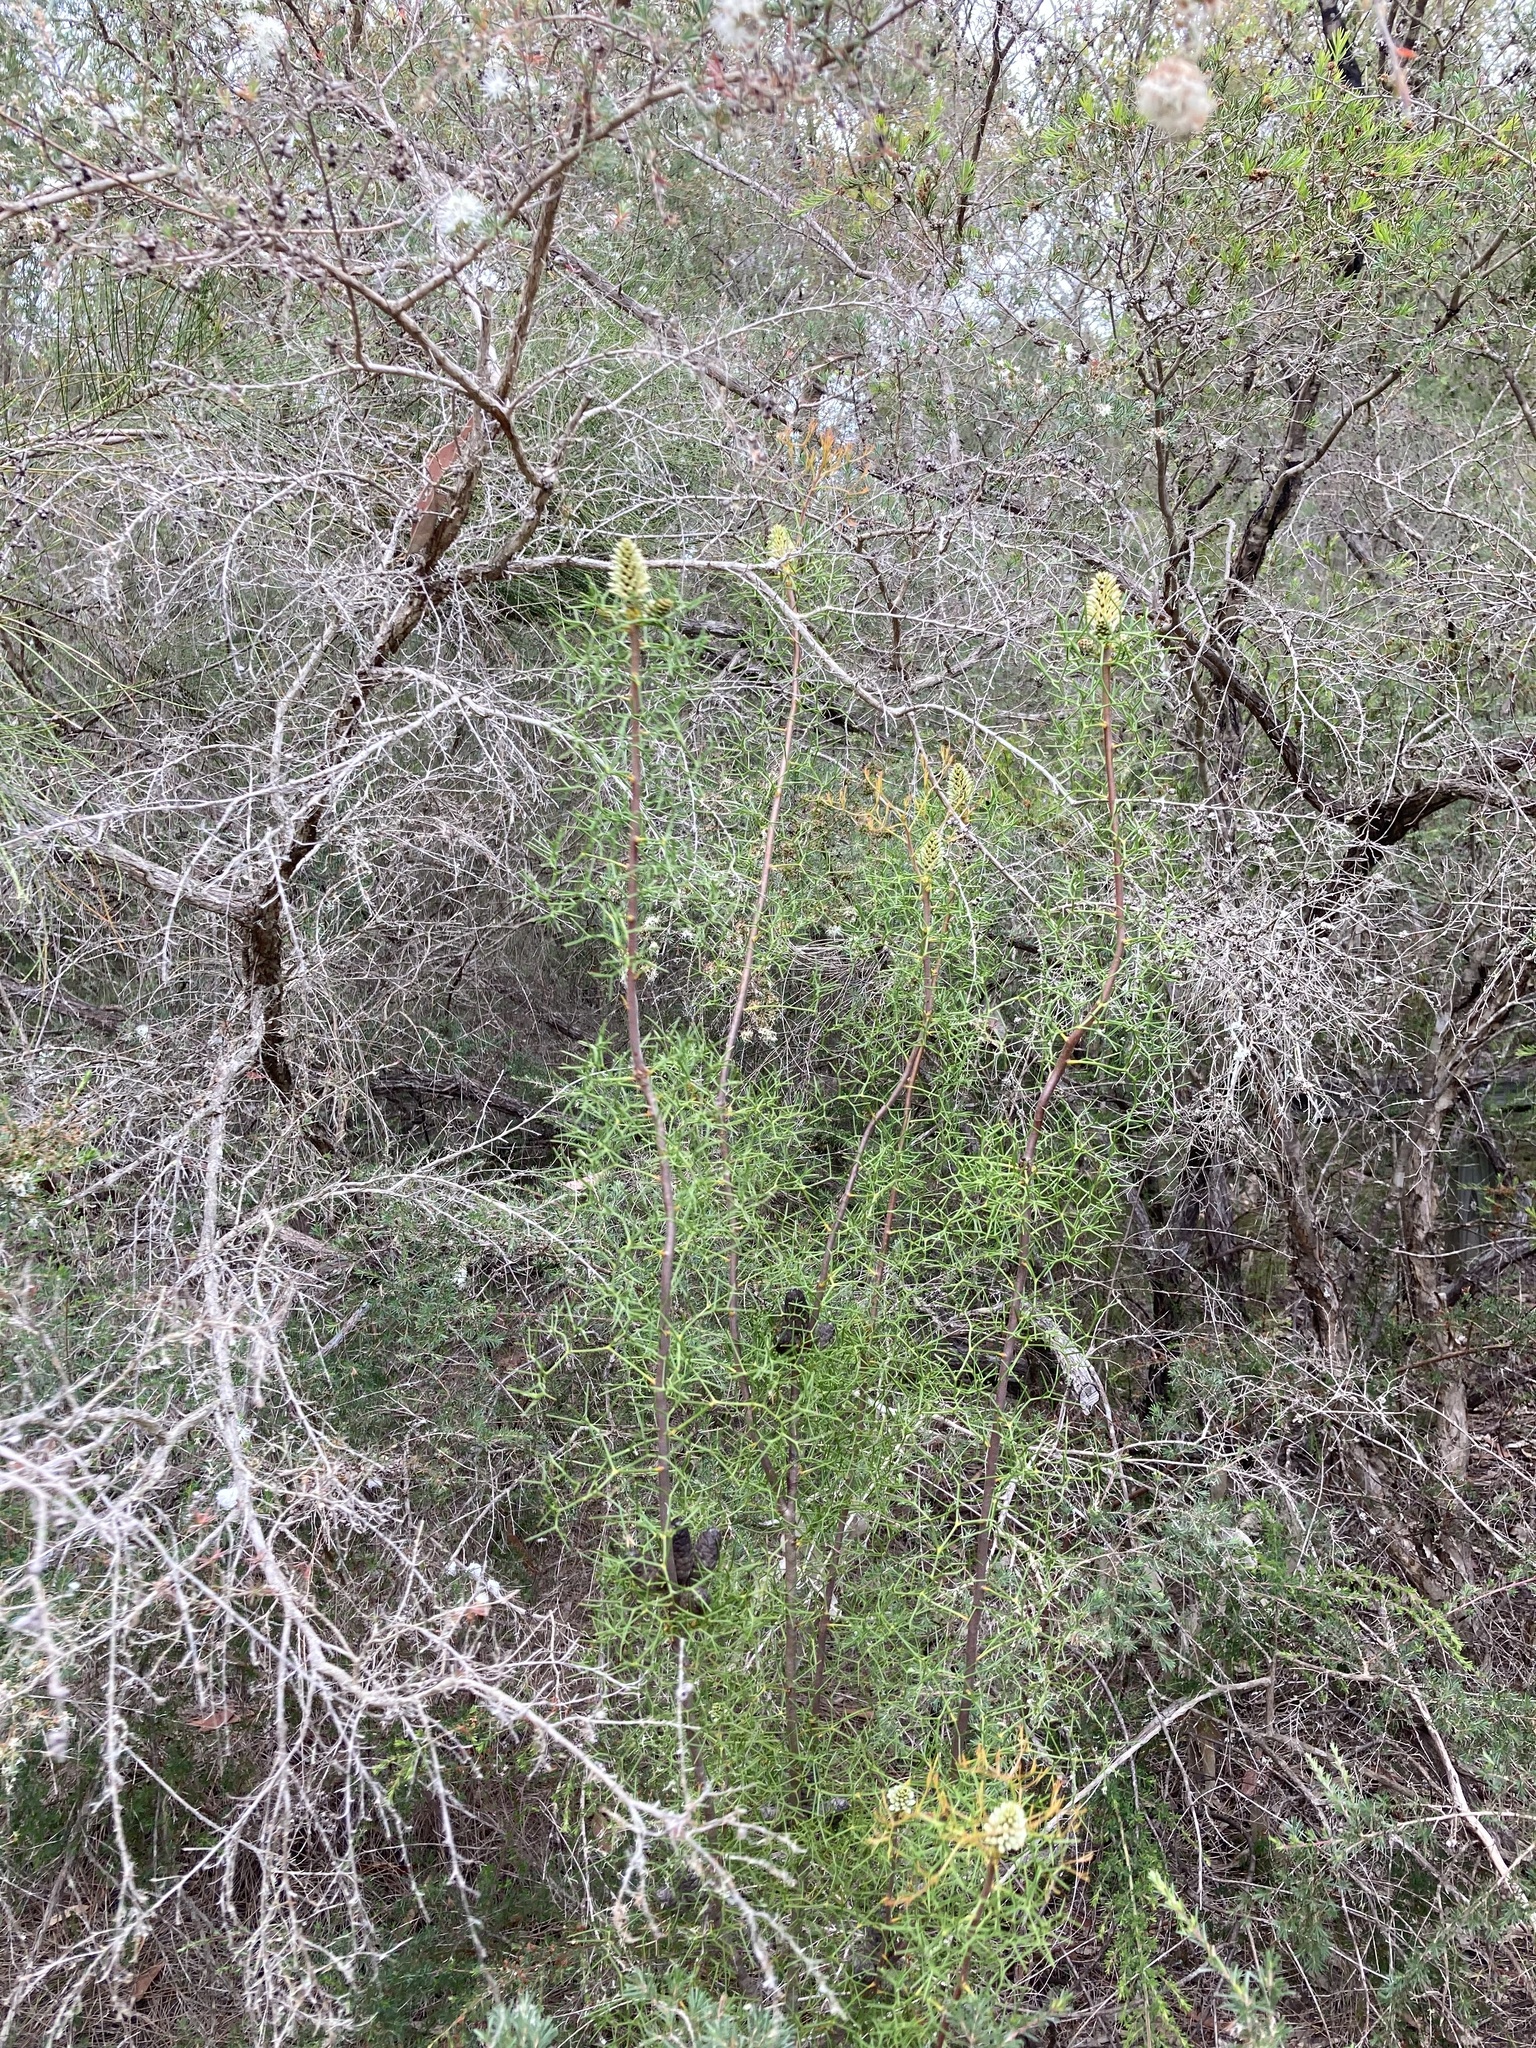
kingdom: Plantae
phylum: Tracheophyta
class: Magnoliopsida
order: Proteales
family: Proteaceae
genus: Petrophile
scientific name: Petrophile sessilis
